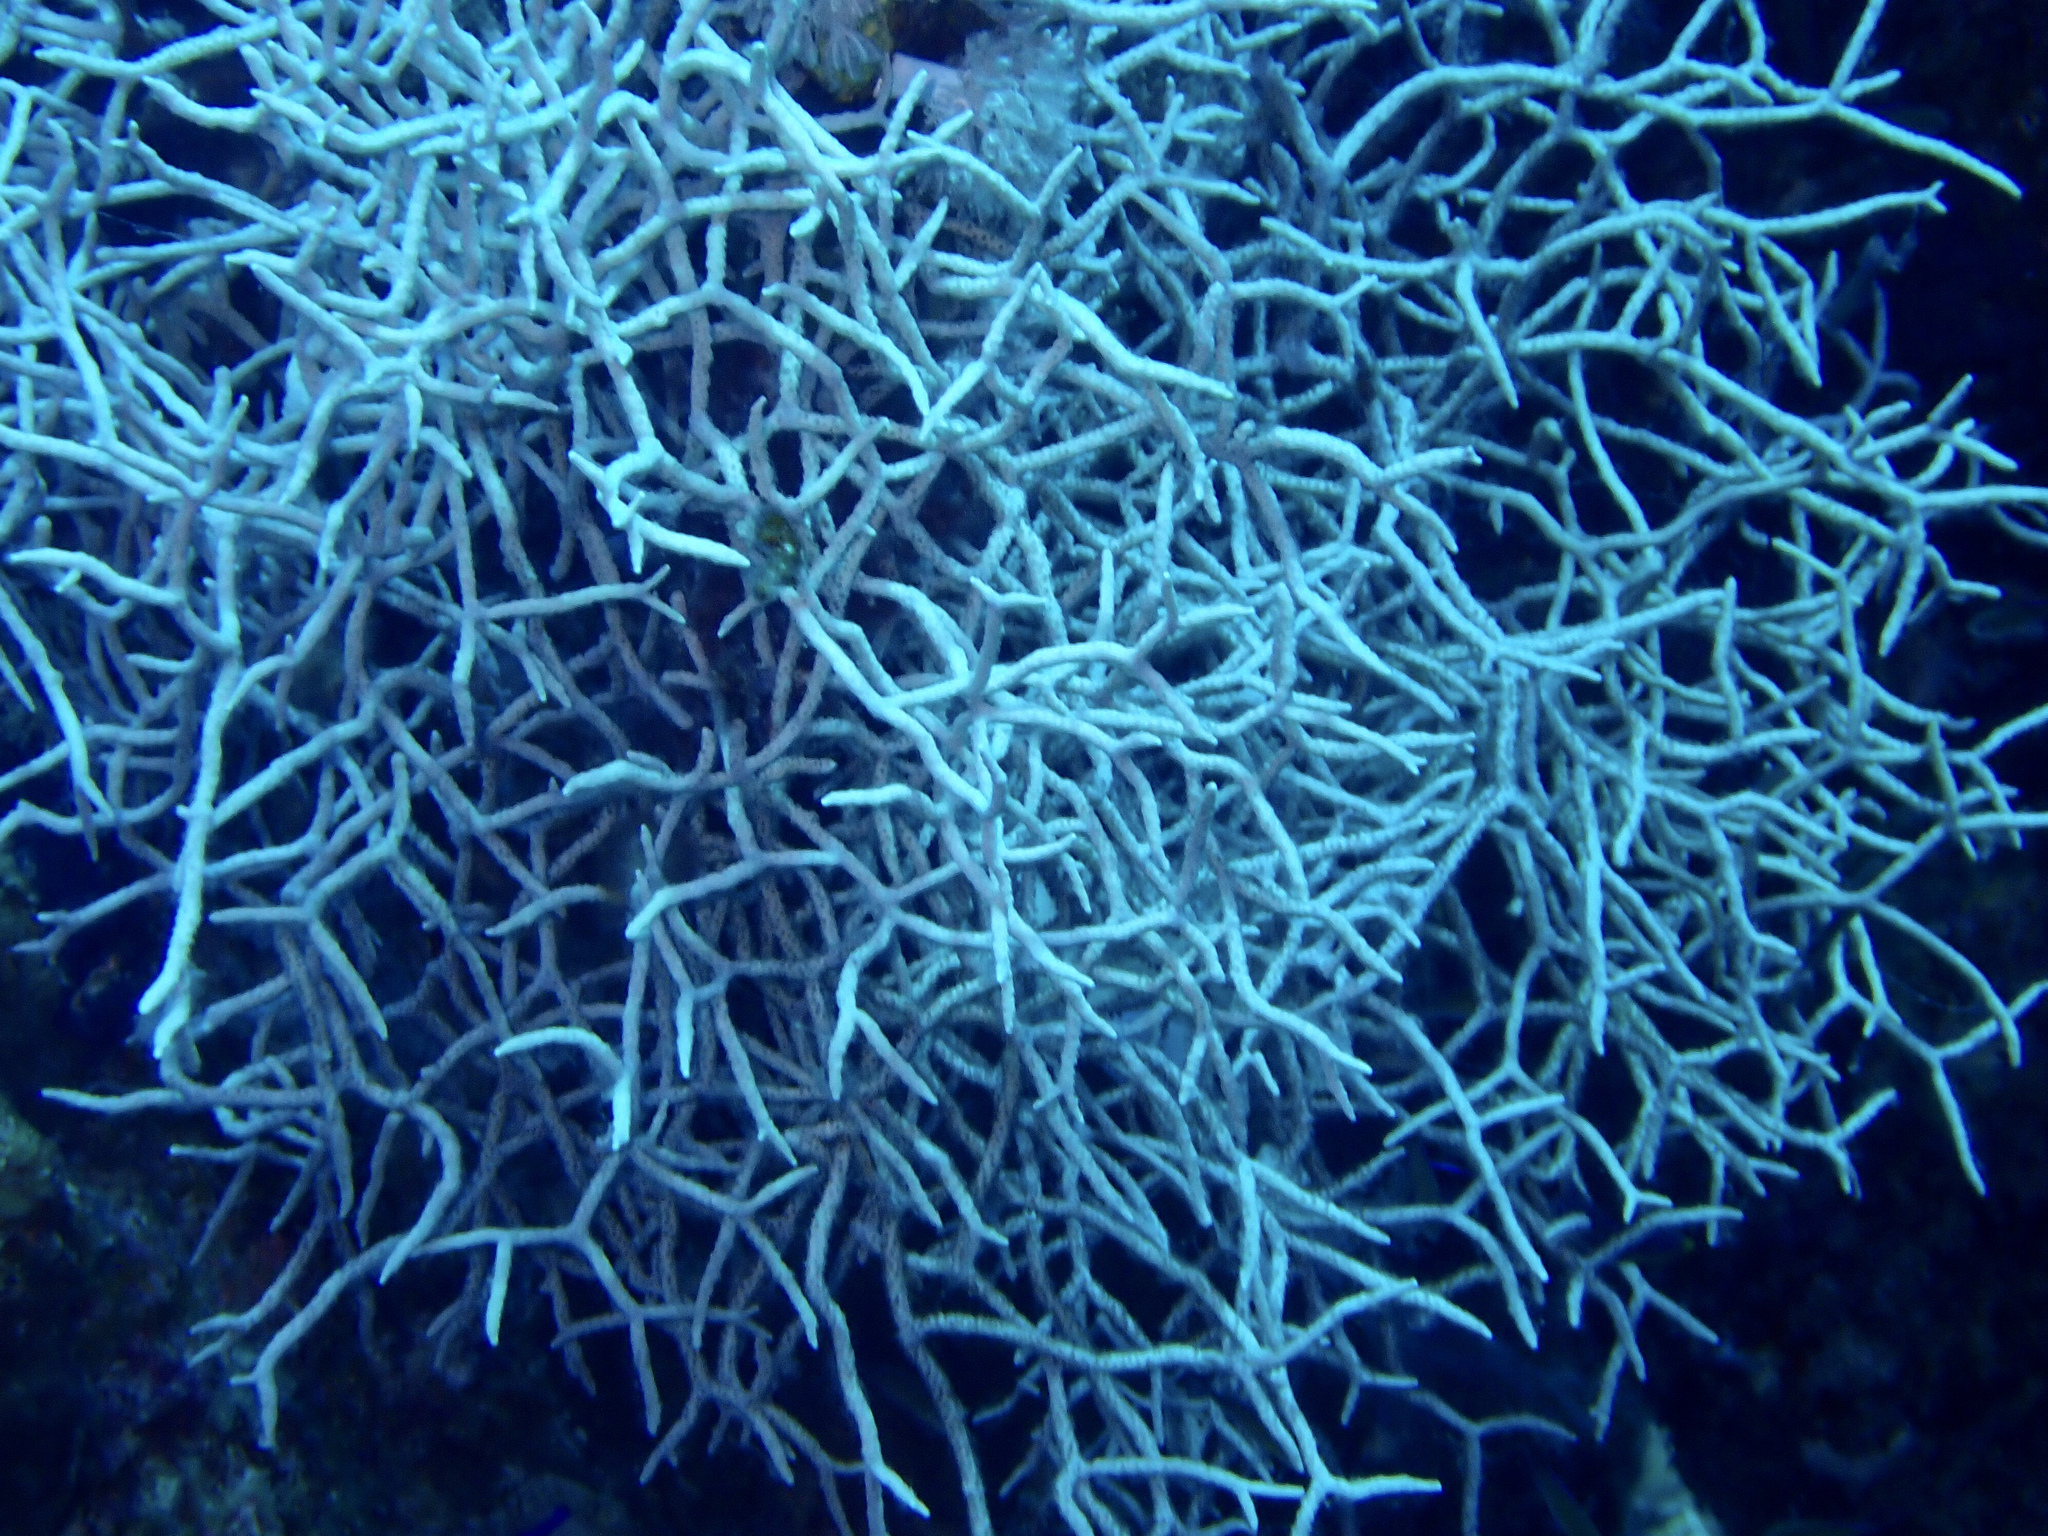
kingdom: Animalia
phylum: Cnidaria
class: Anthozoa
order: Malacalcyonacea
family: Melithaeidae
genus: Melithaea
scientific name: Melithaea rubrinodis
